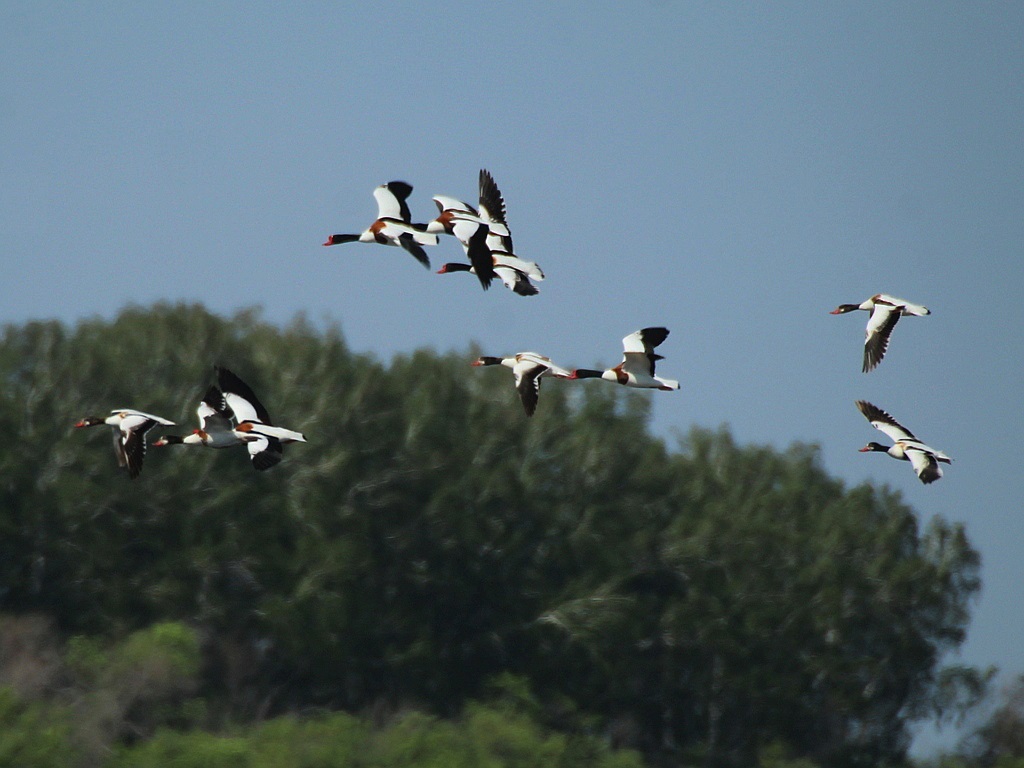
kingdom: Animalia
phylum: Chordata
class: Aves
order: Anseriformes
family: Anatidae
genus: Tadorna
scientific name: Tadorna tadorna
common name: Common shelduck
